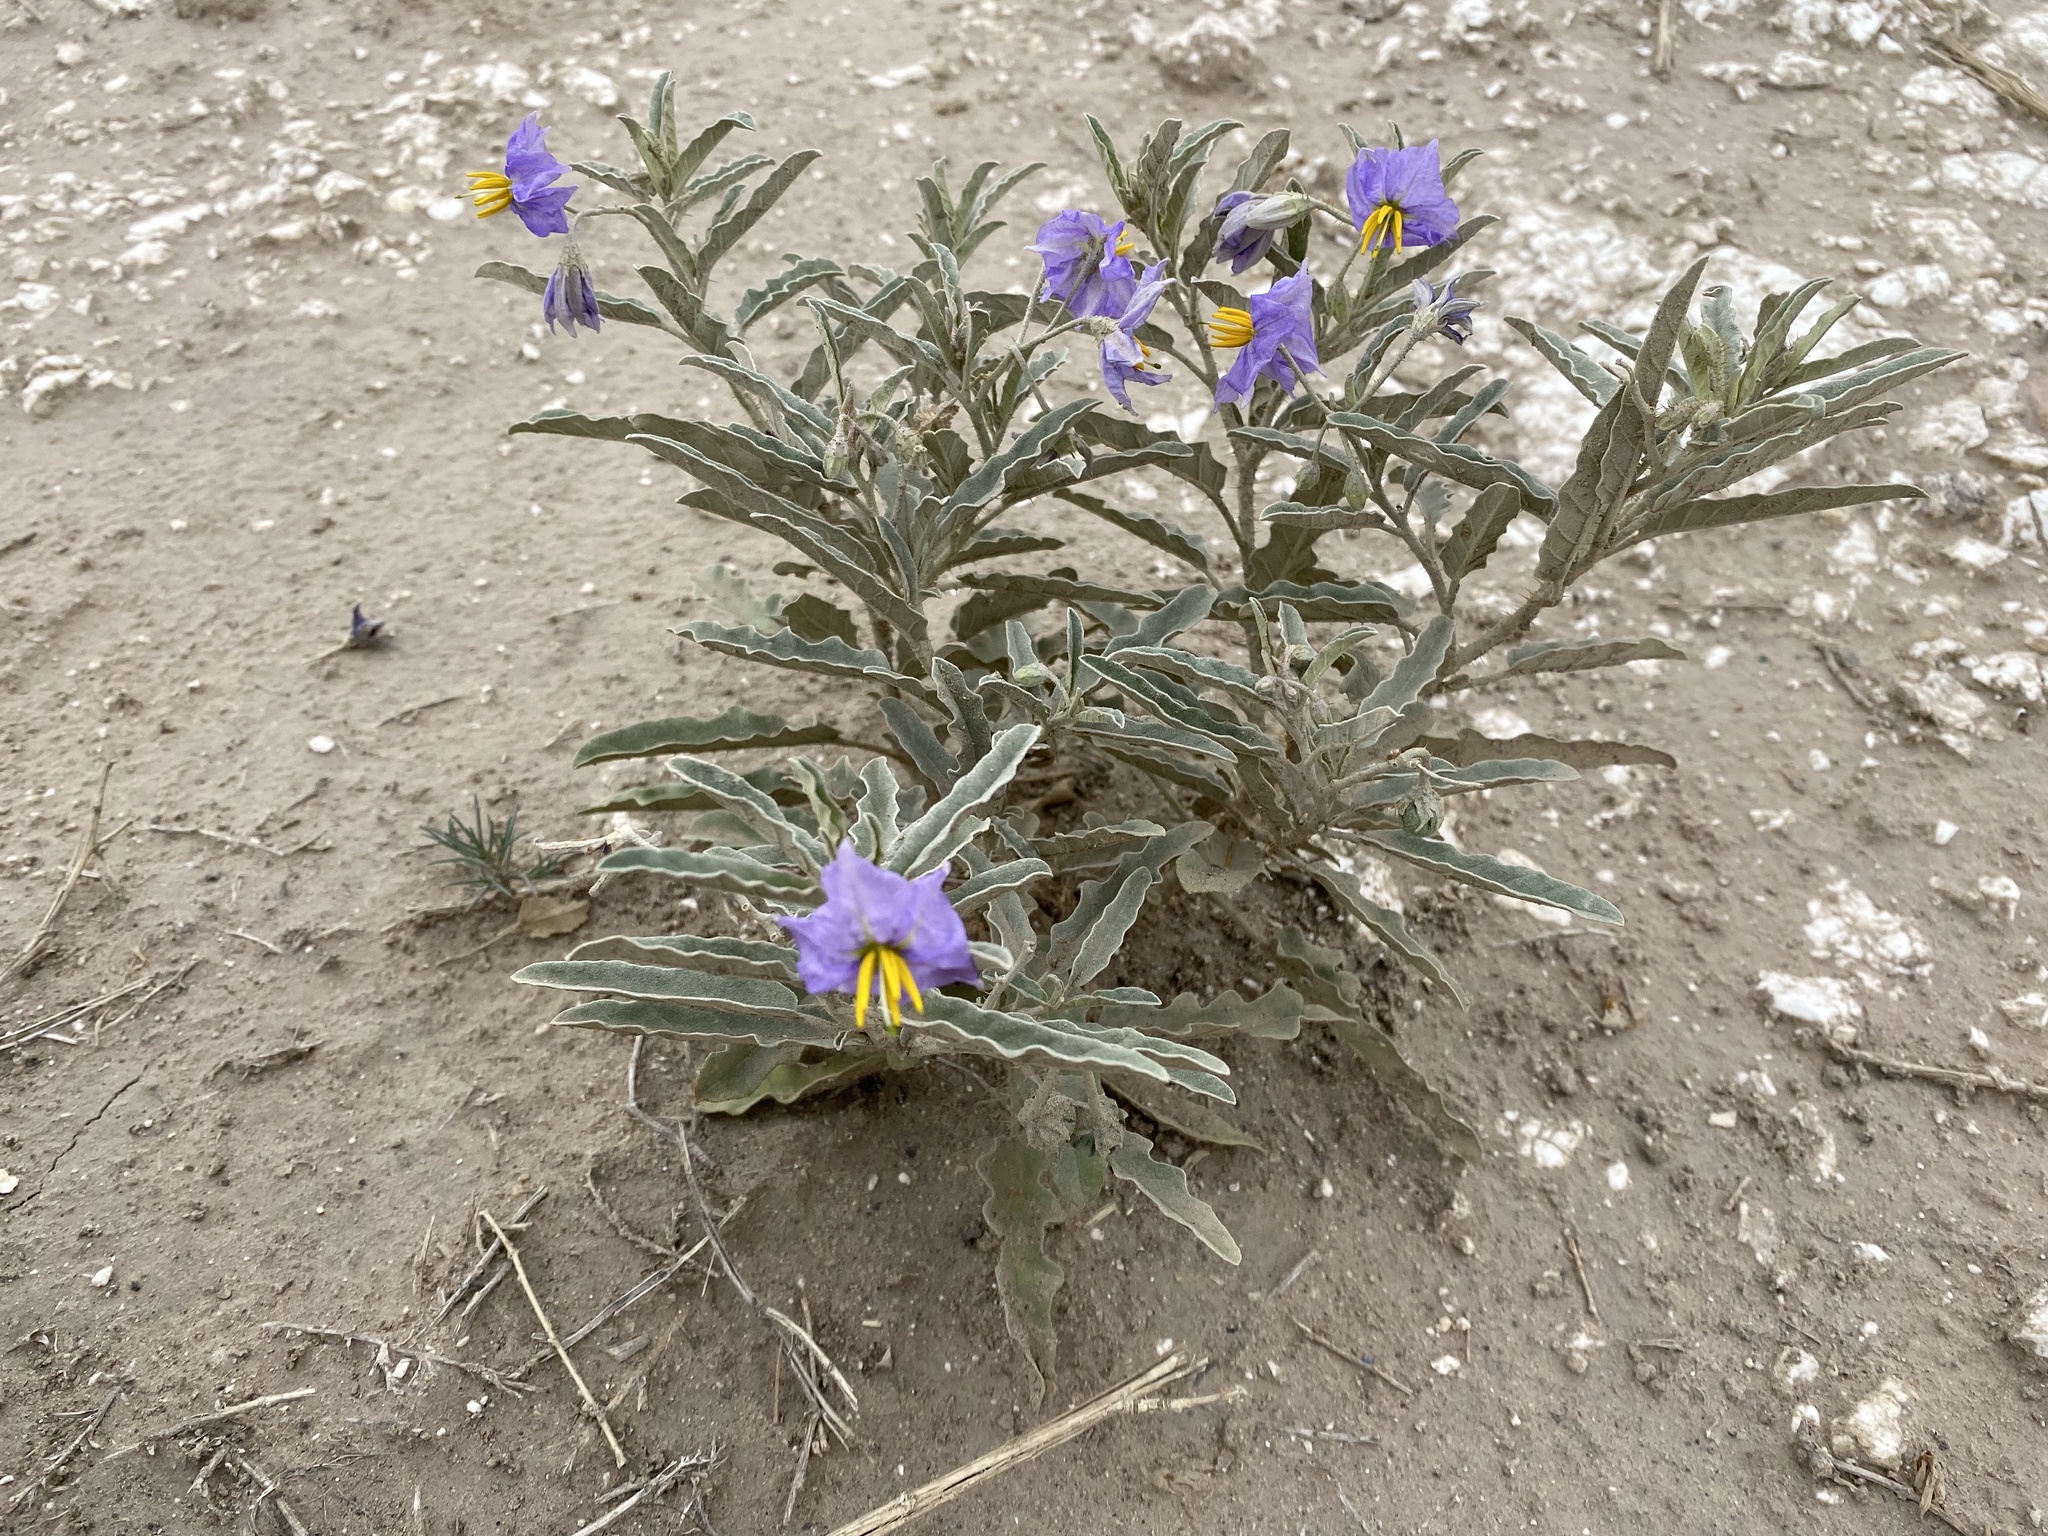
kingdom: Plantae
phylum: Tracheophyta
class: Magnoliopsida
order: Solanales
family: Solanaceae
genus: Solanum
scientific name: Solanum elaeagnifolium
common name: Silverleaf nightshade
